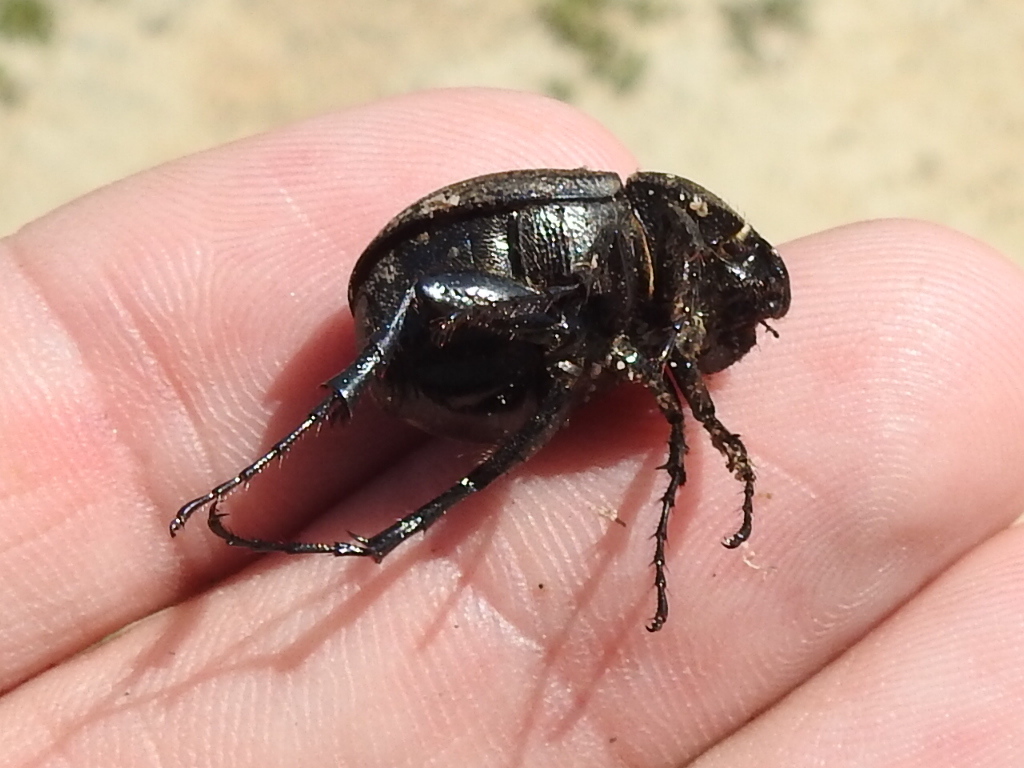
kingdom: Animalia
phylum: Arthropoda
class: Insecta
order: Coleoptera
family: Scarabaeidae
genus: Phyllophaga
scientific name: Phyllophaga cribrosa
